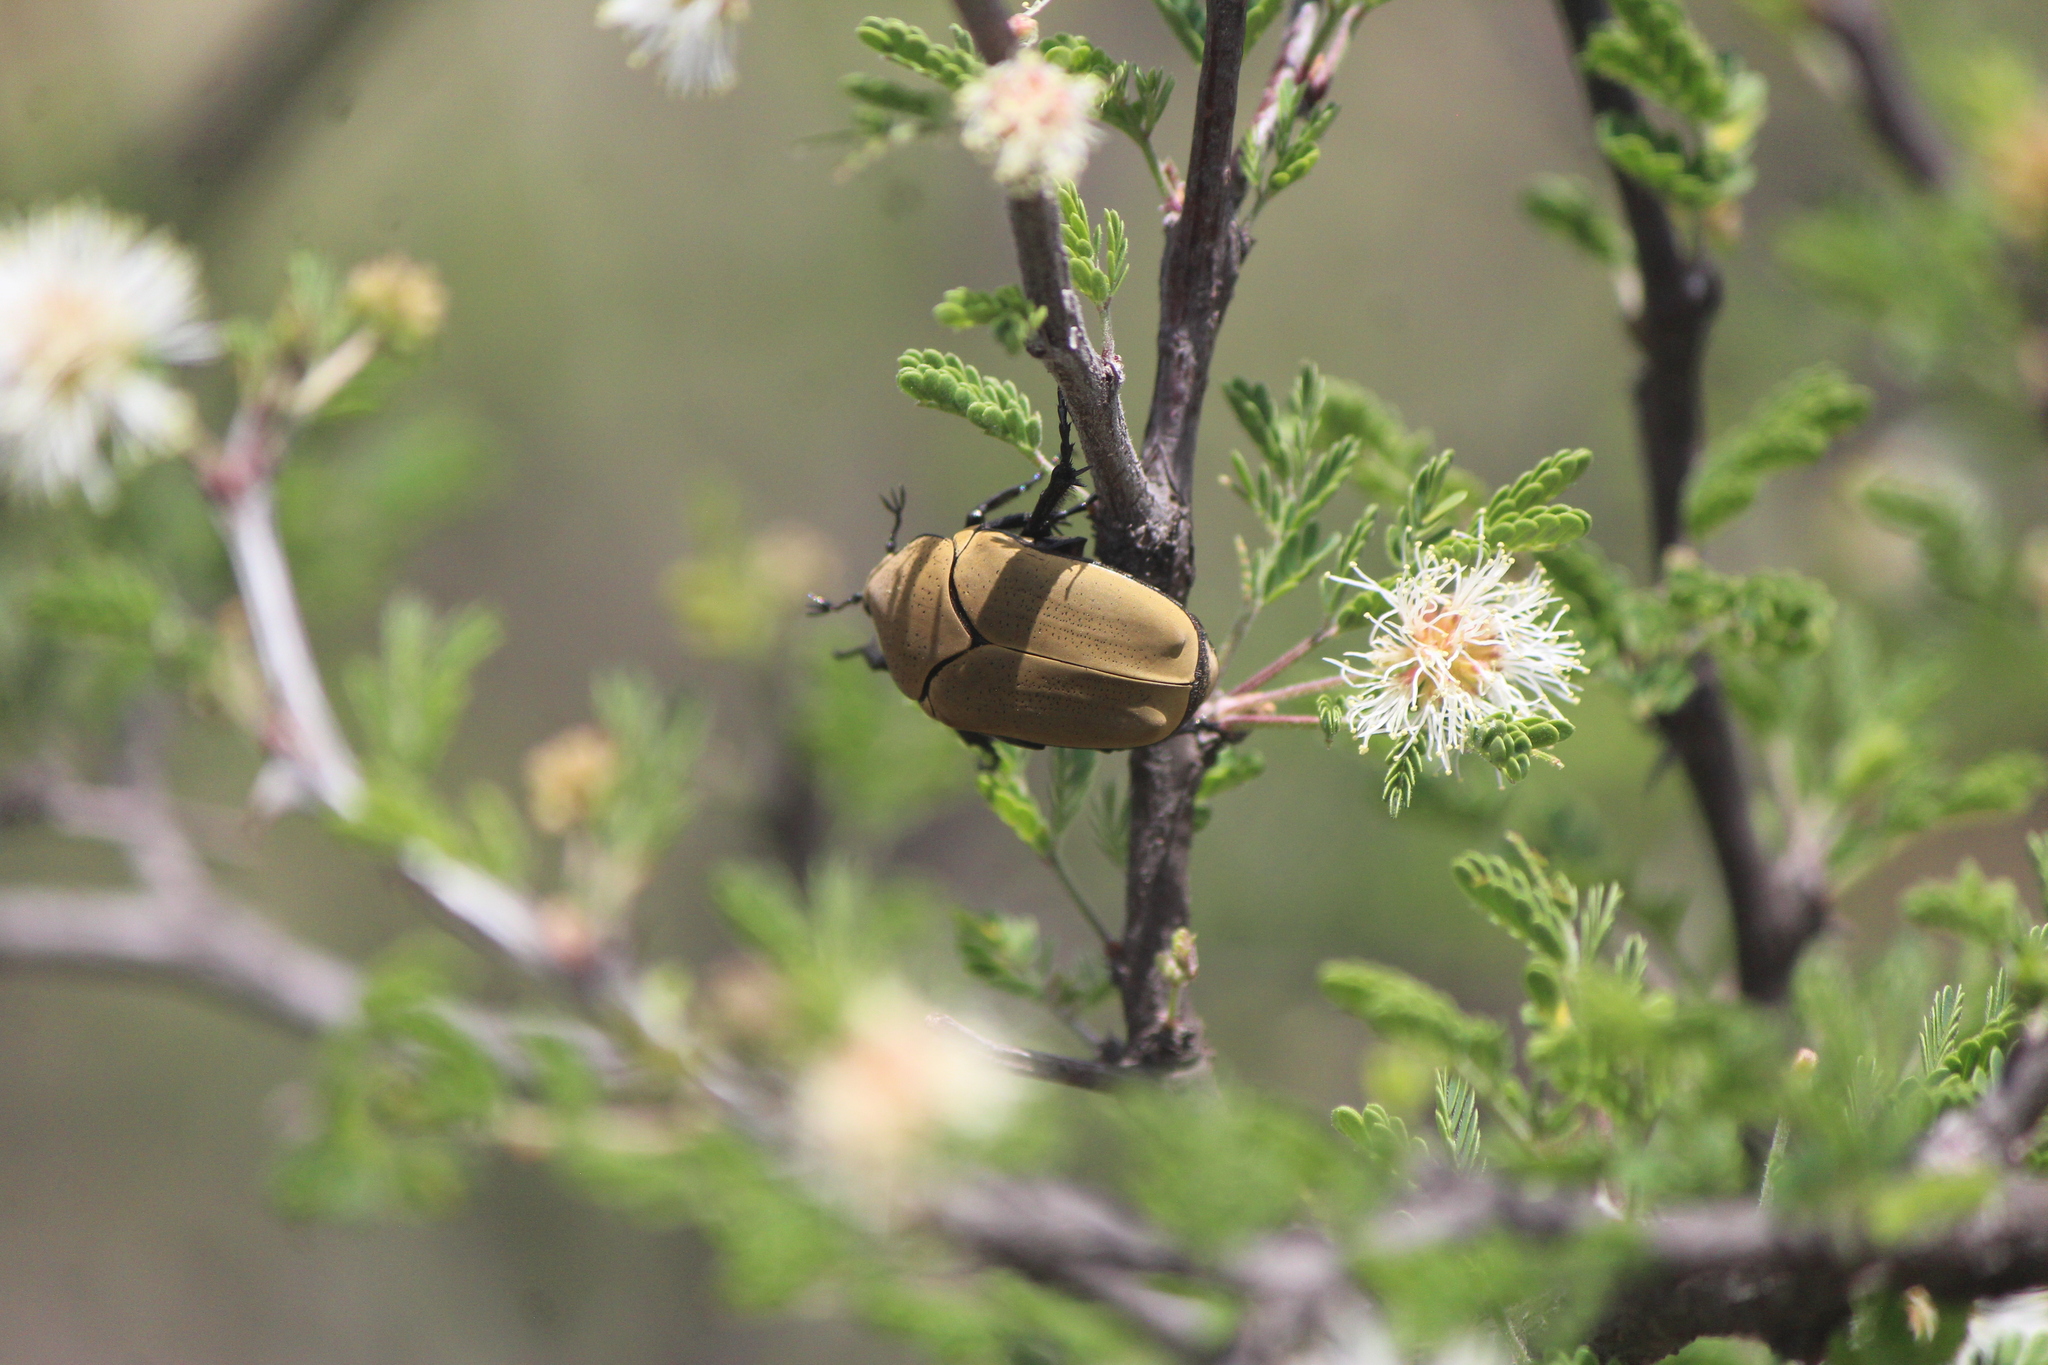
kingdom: Animalia
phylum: Arthropoda
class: Insecta
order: Coleoptera
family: Scarabaeidae
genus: Hologymnetis
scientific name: Hologymnetis cinerea
